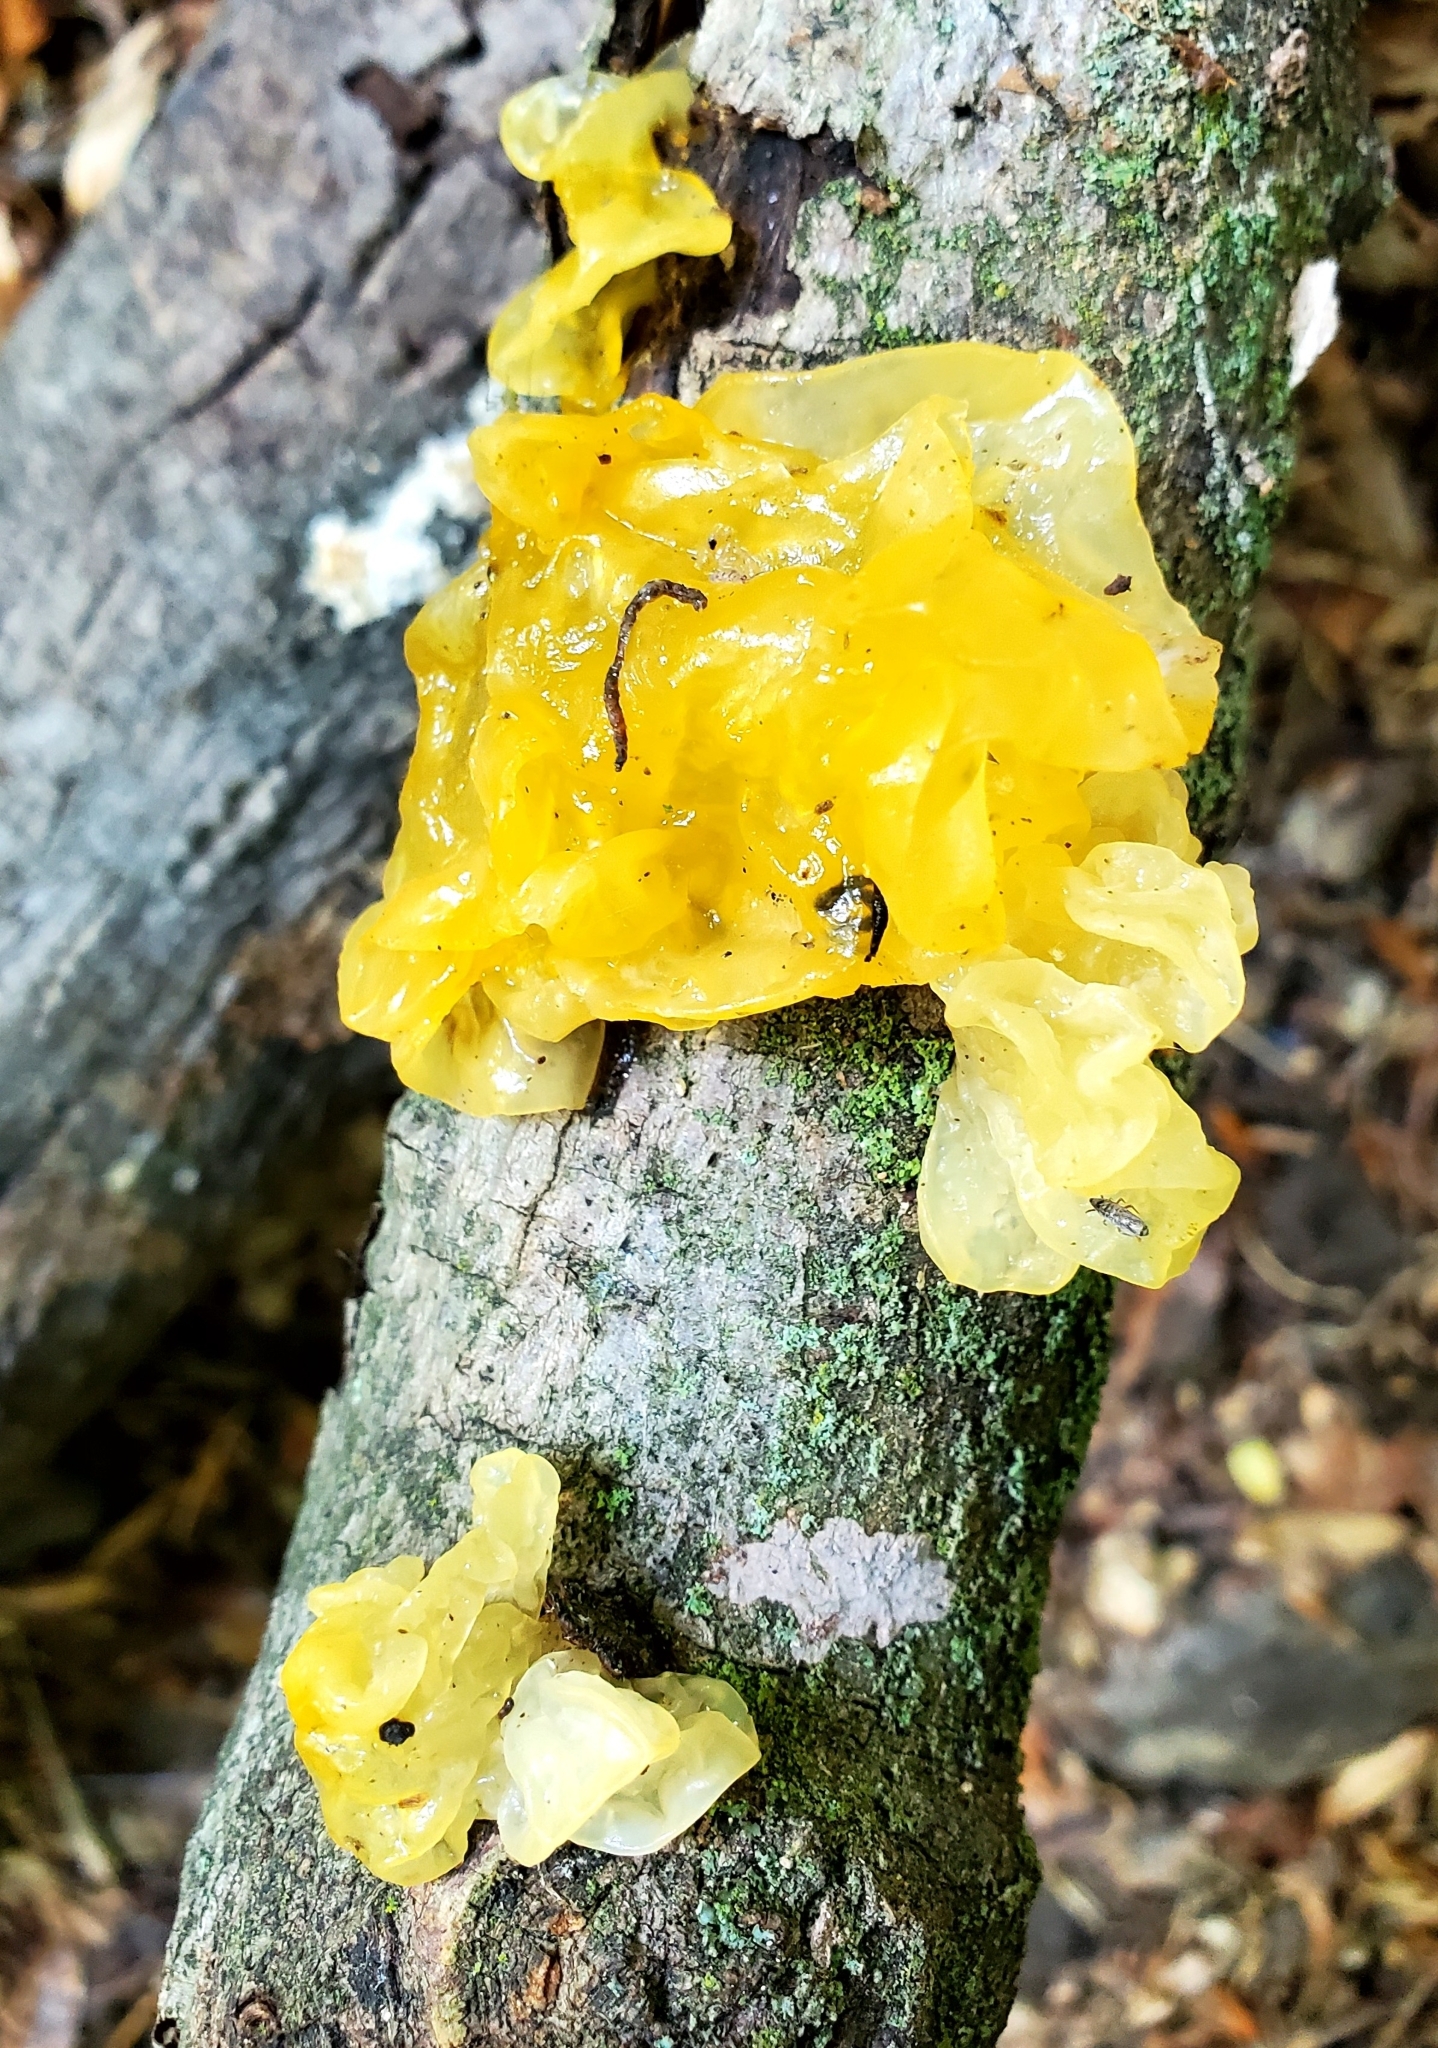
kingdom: Fungi
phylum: Basidiomycota
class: Tremellomycetes
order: Tremellales
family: Tremellaceae
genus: Tremella
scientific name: Tremella mesenterica
